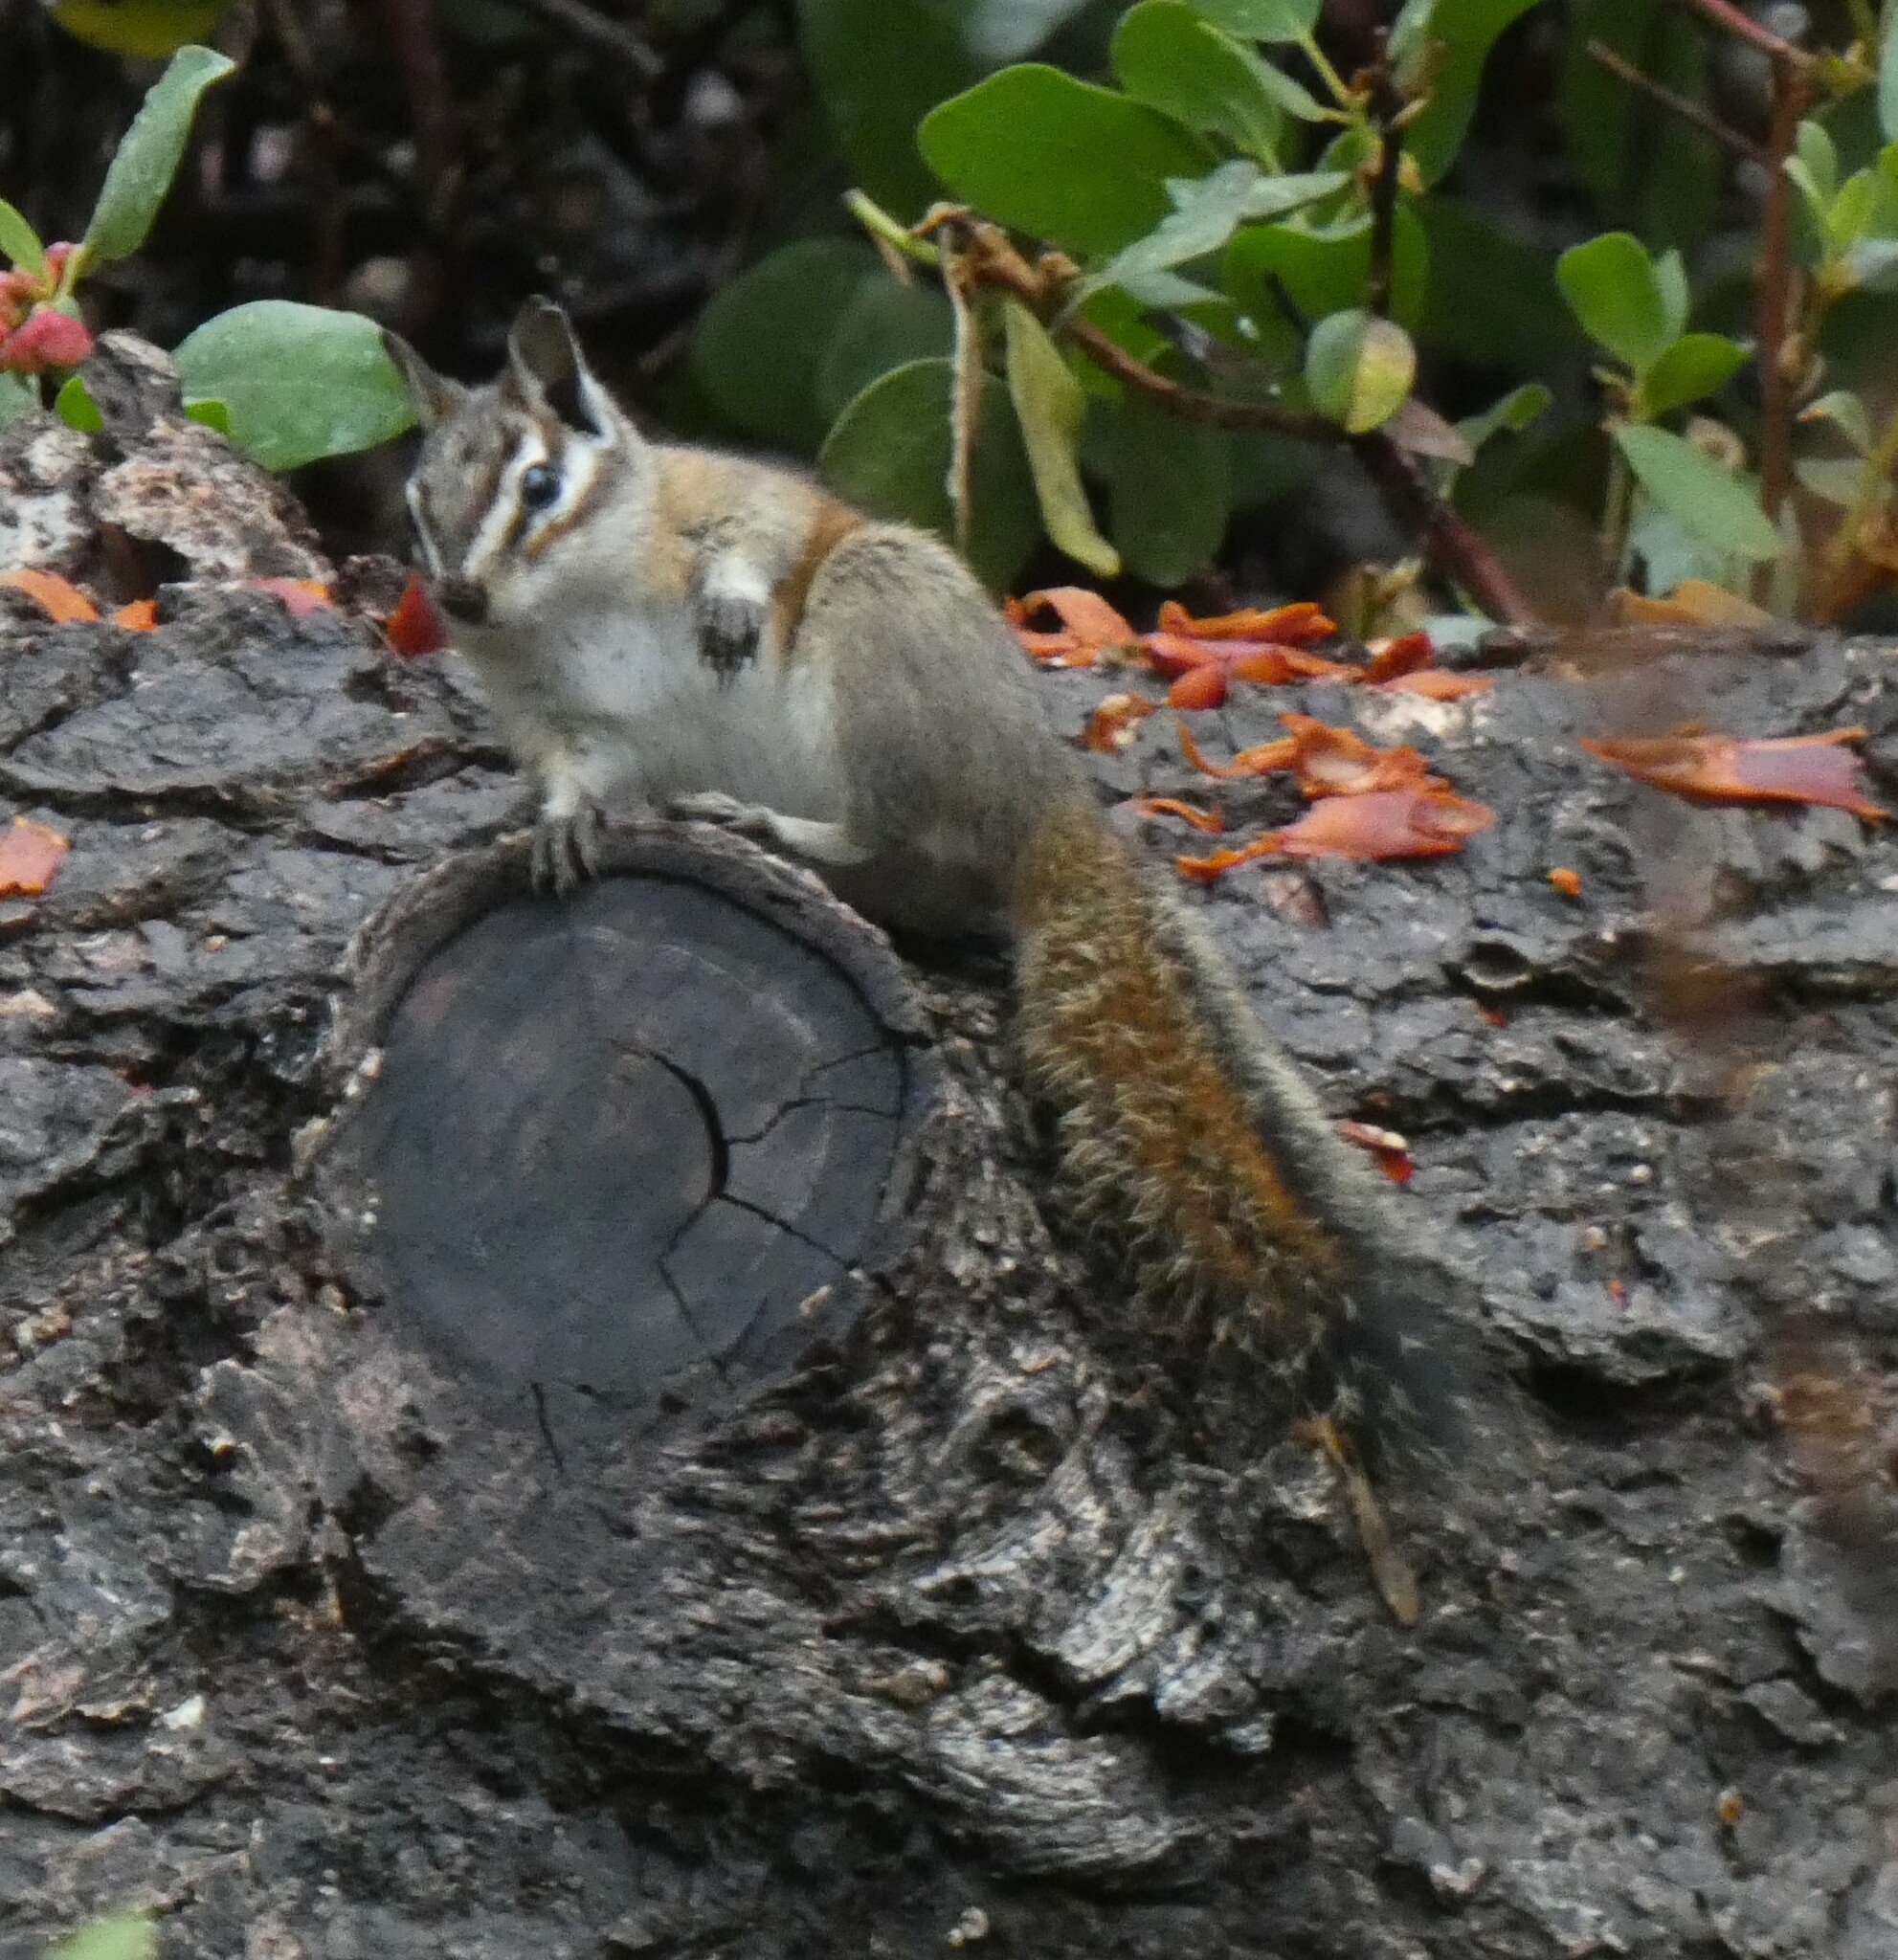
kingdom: Animalia
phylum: Chordata
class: Mammalia
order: Rodentia
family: Sciuridae
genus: Tamias
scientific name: Tamias speciosus
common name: Lodgepole chipmunk
